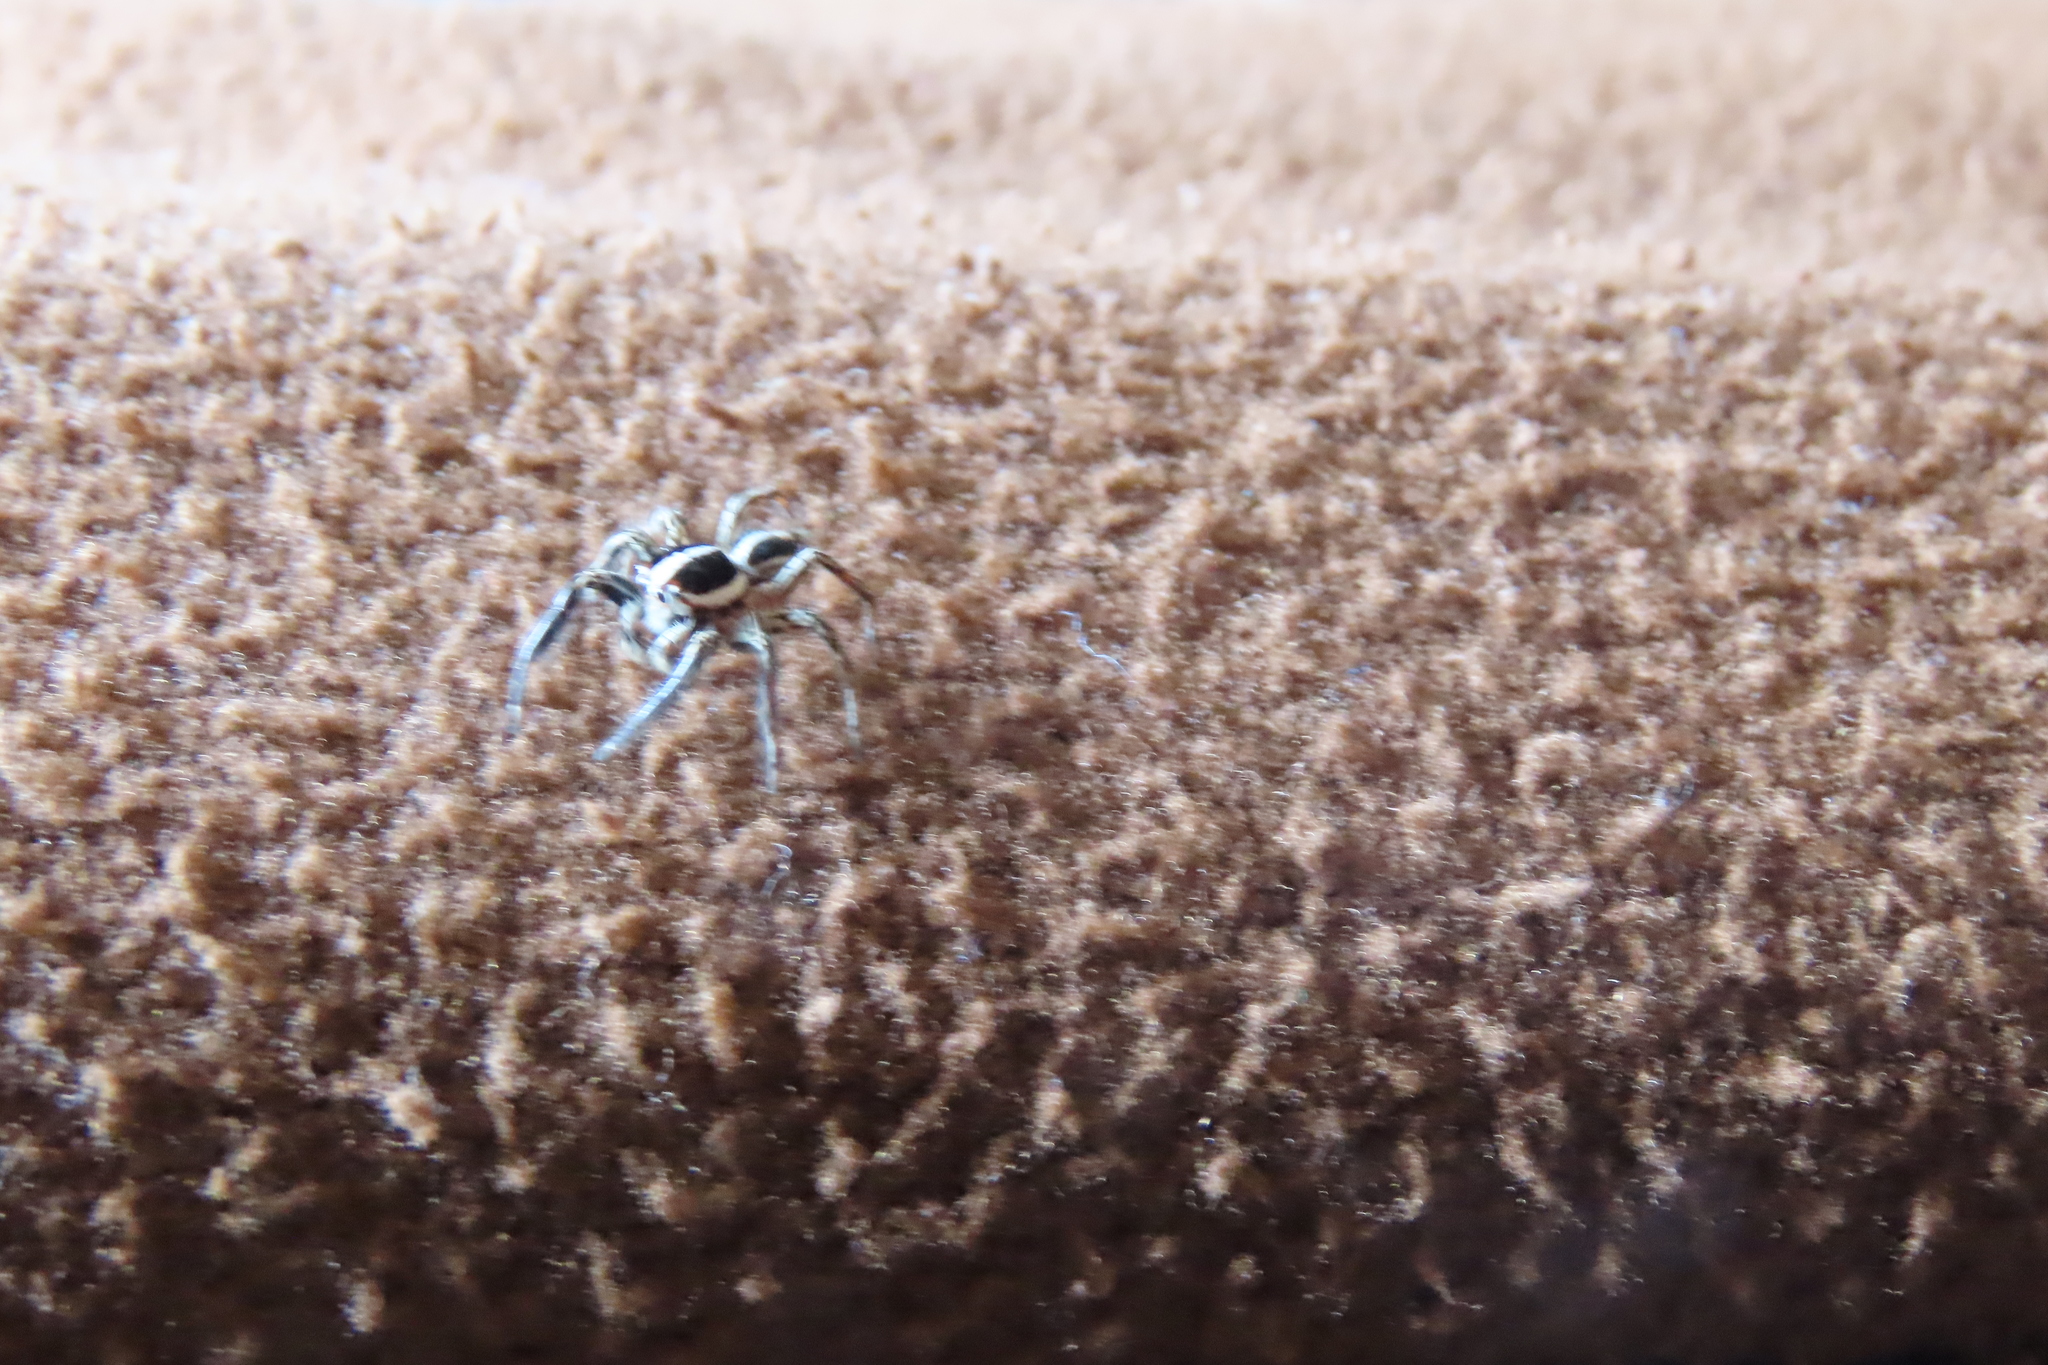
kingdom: Animalia
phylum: Arthropoda
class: Arachnida
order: Araneae
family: Salticidae
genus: Plexippus
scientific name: Plexippus paykulli
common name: Pantropical jumper
